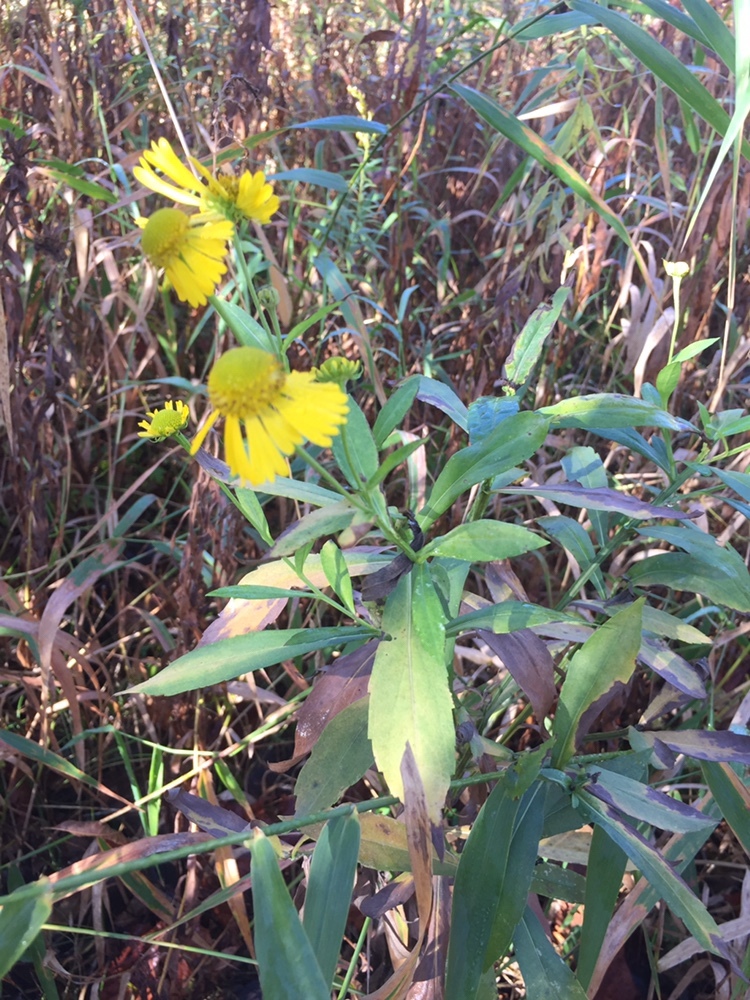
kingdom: Plantae
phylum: Tracheophyta
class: Magnoliopsida
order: Asterales
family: Asteraceae
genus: Helenium
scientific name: Helenium autumnale
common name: Sneezeweed
